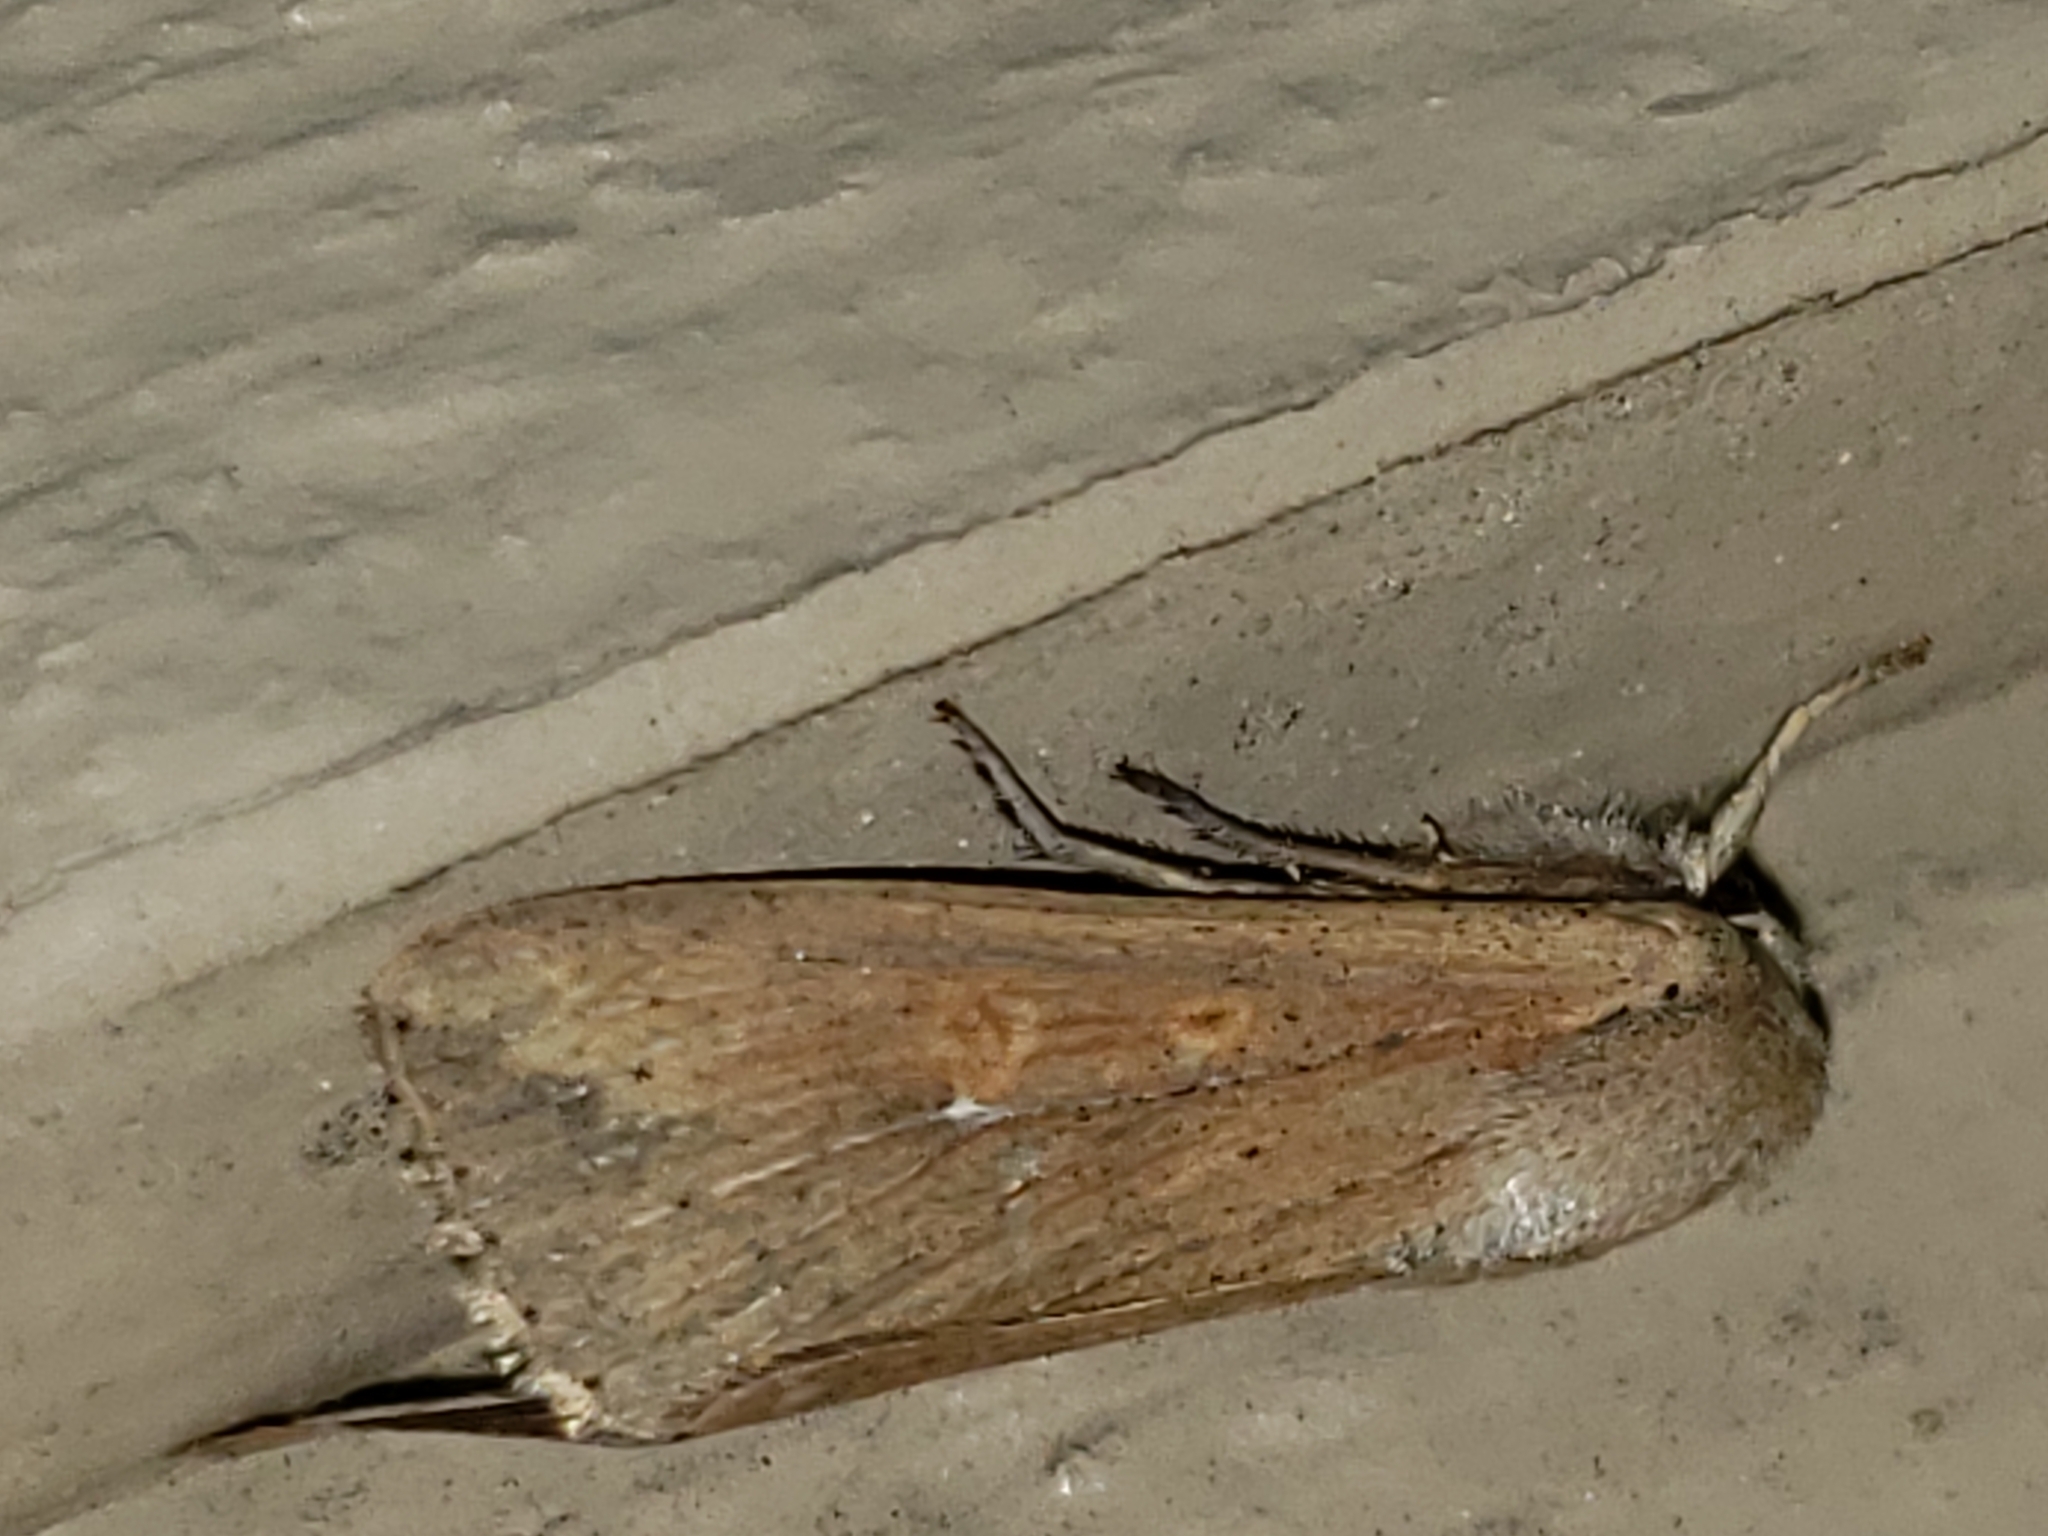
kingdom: Animalia
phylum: Arthropoda
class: Insecta
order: Lepidoptera
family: Noctuidae
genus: Mythimna
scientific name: Mythimna unipuncta
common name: White-speck
